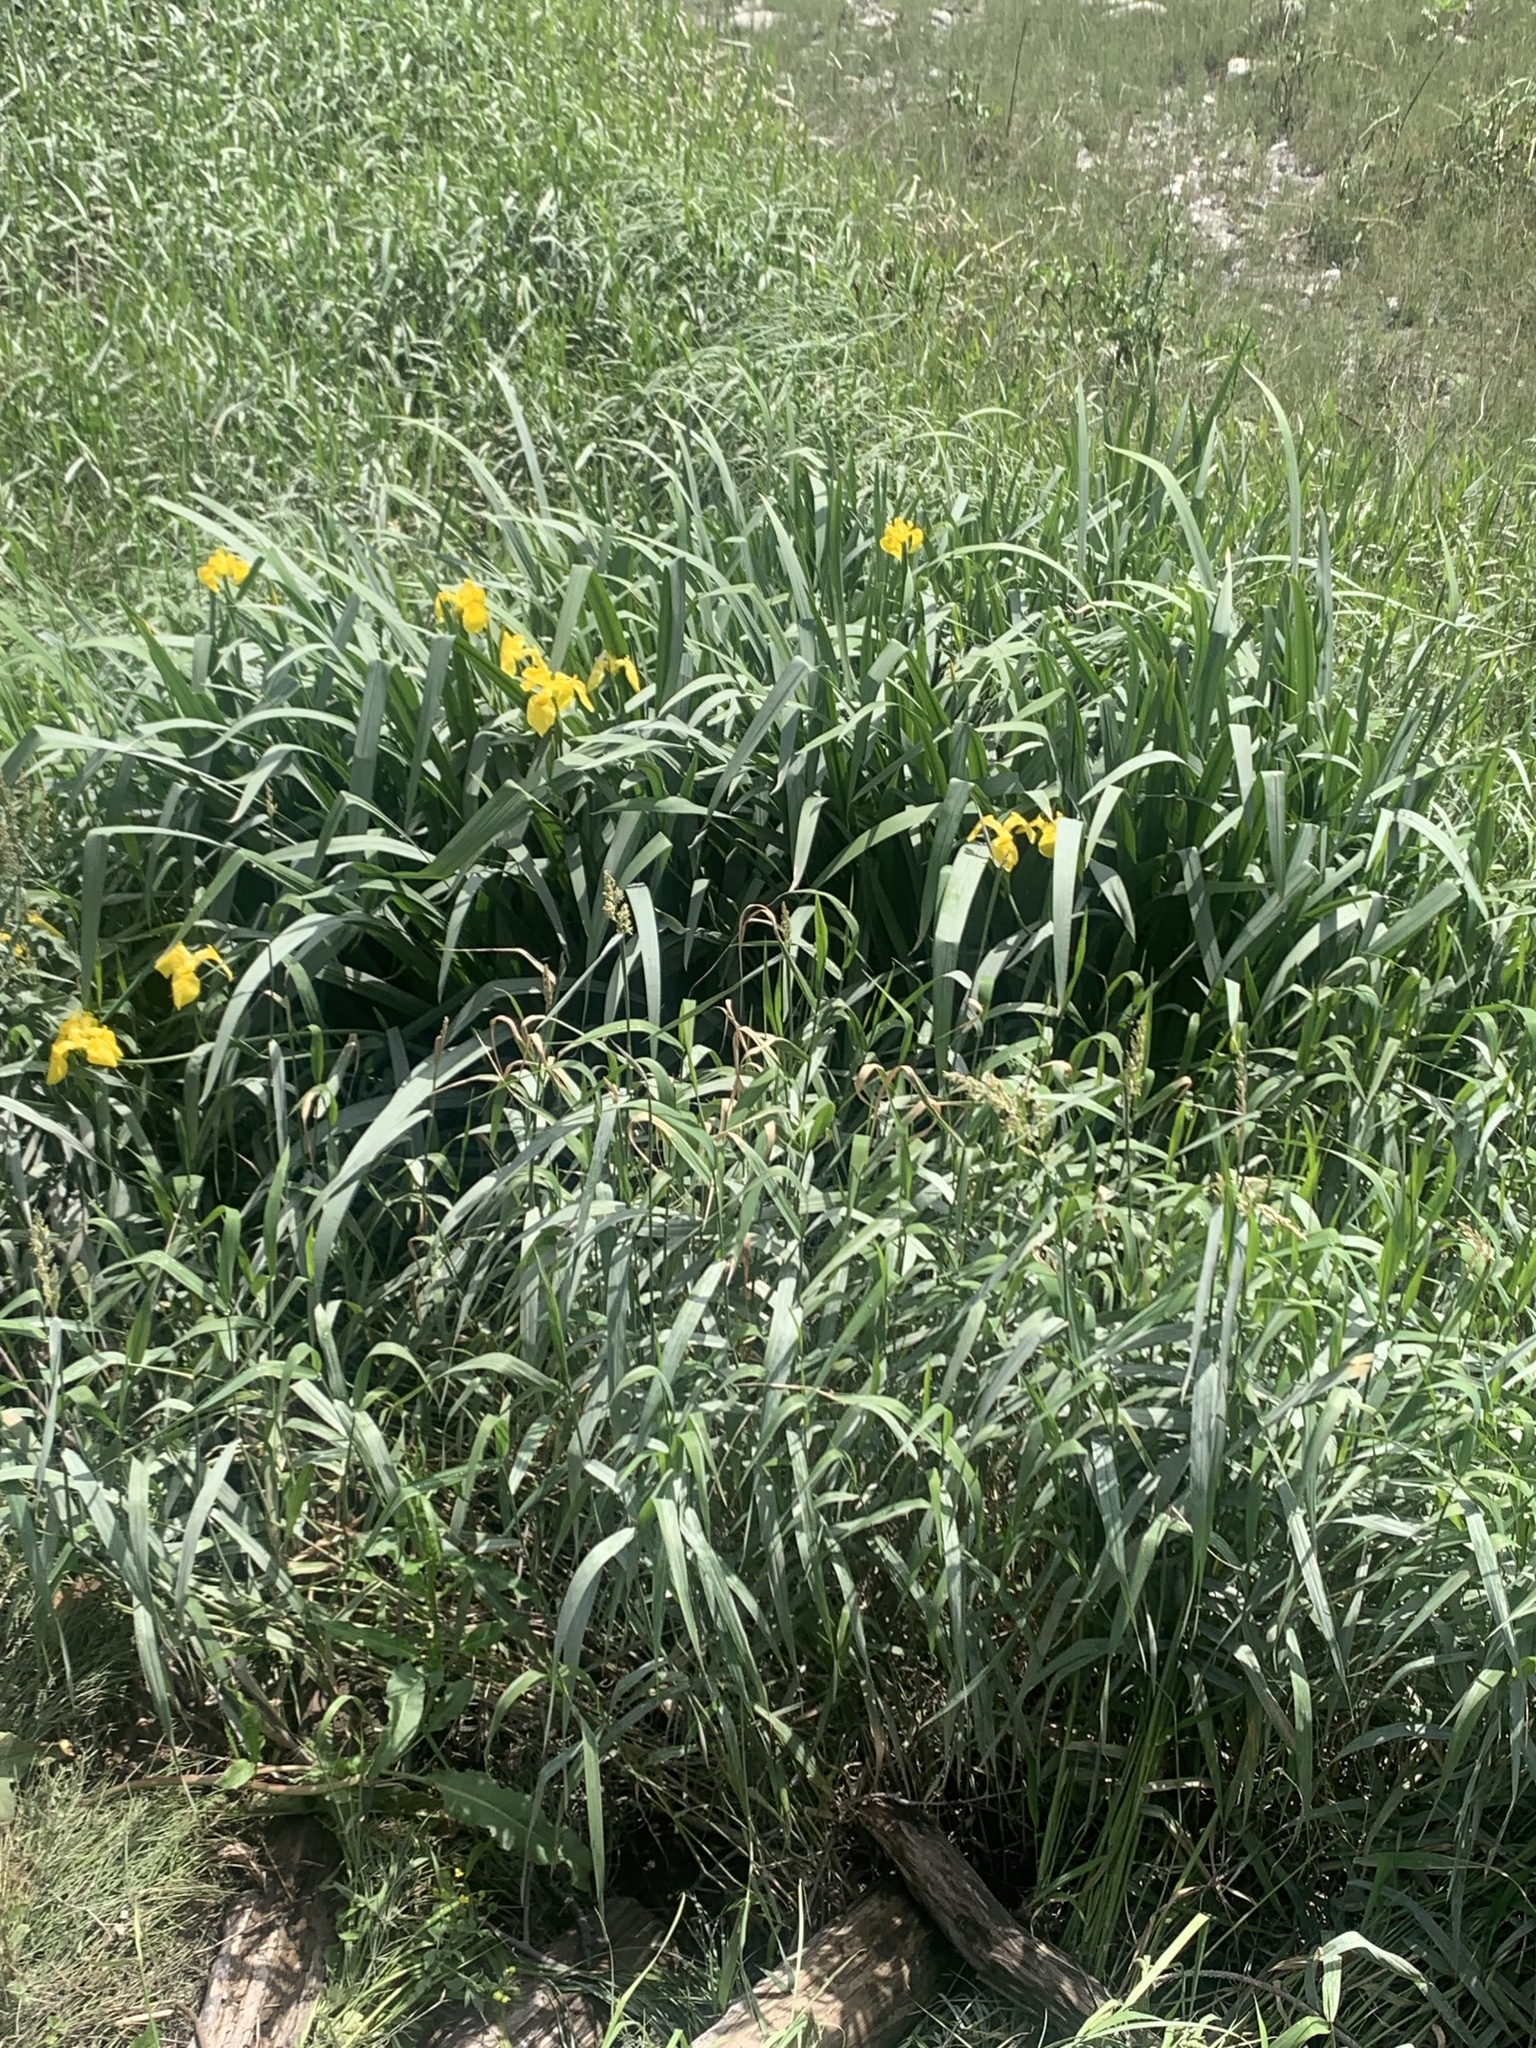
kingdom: Plantae
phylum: Tracheophyta
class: Liliopsida
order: Asparagales
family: Iridaceae
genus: Iris
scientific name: Iris pseudacorus
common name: Yellow flag
